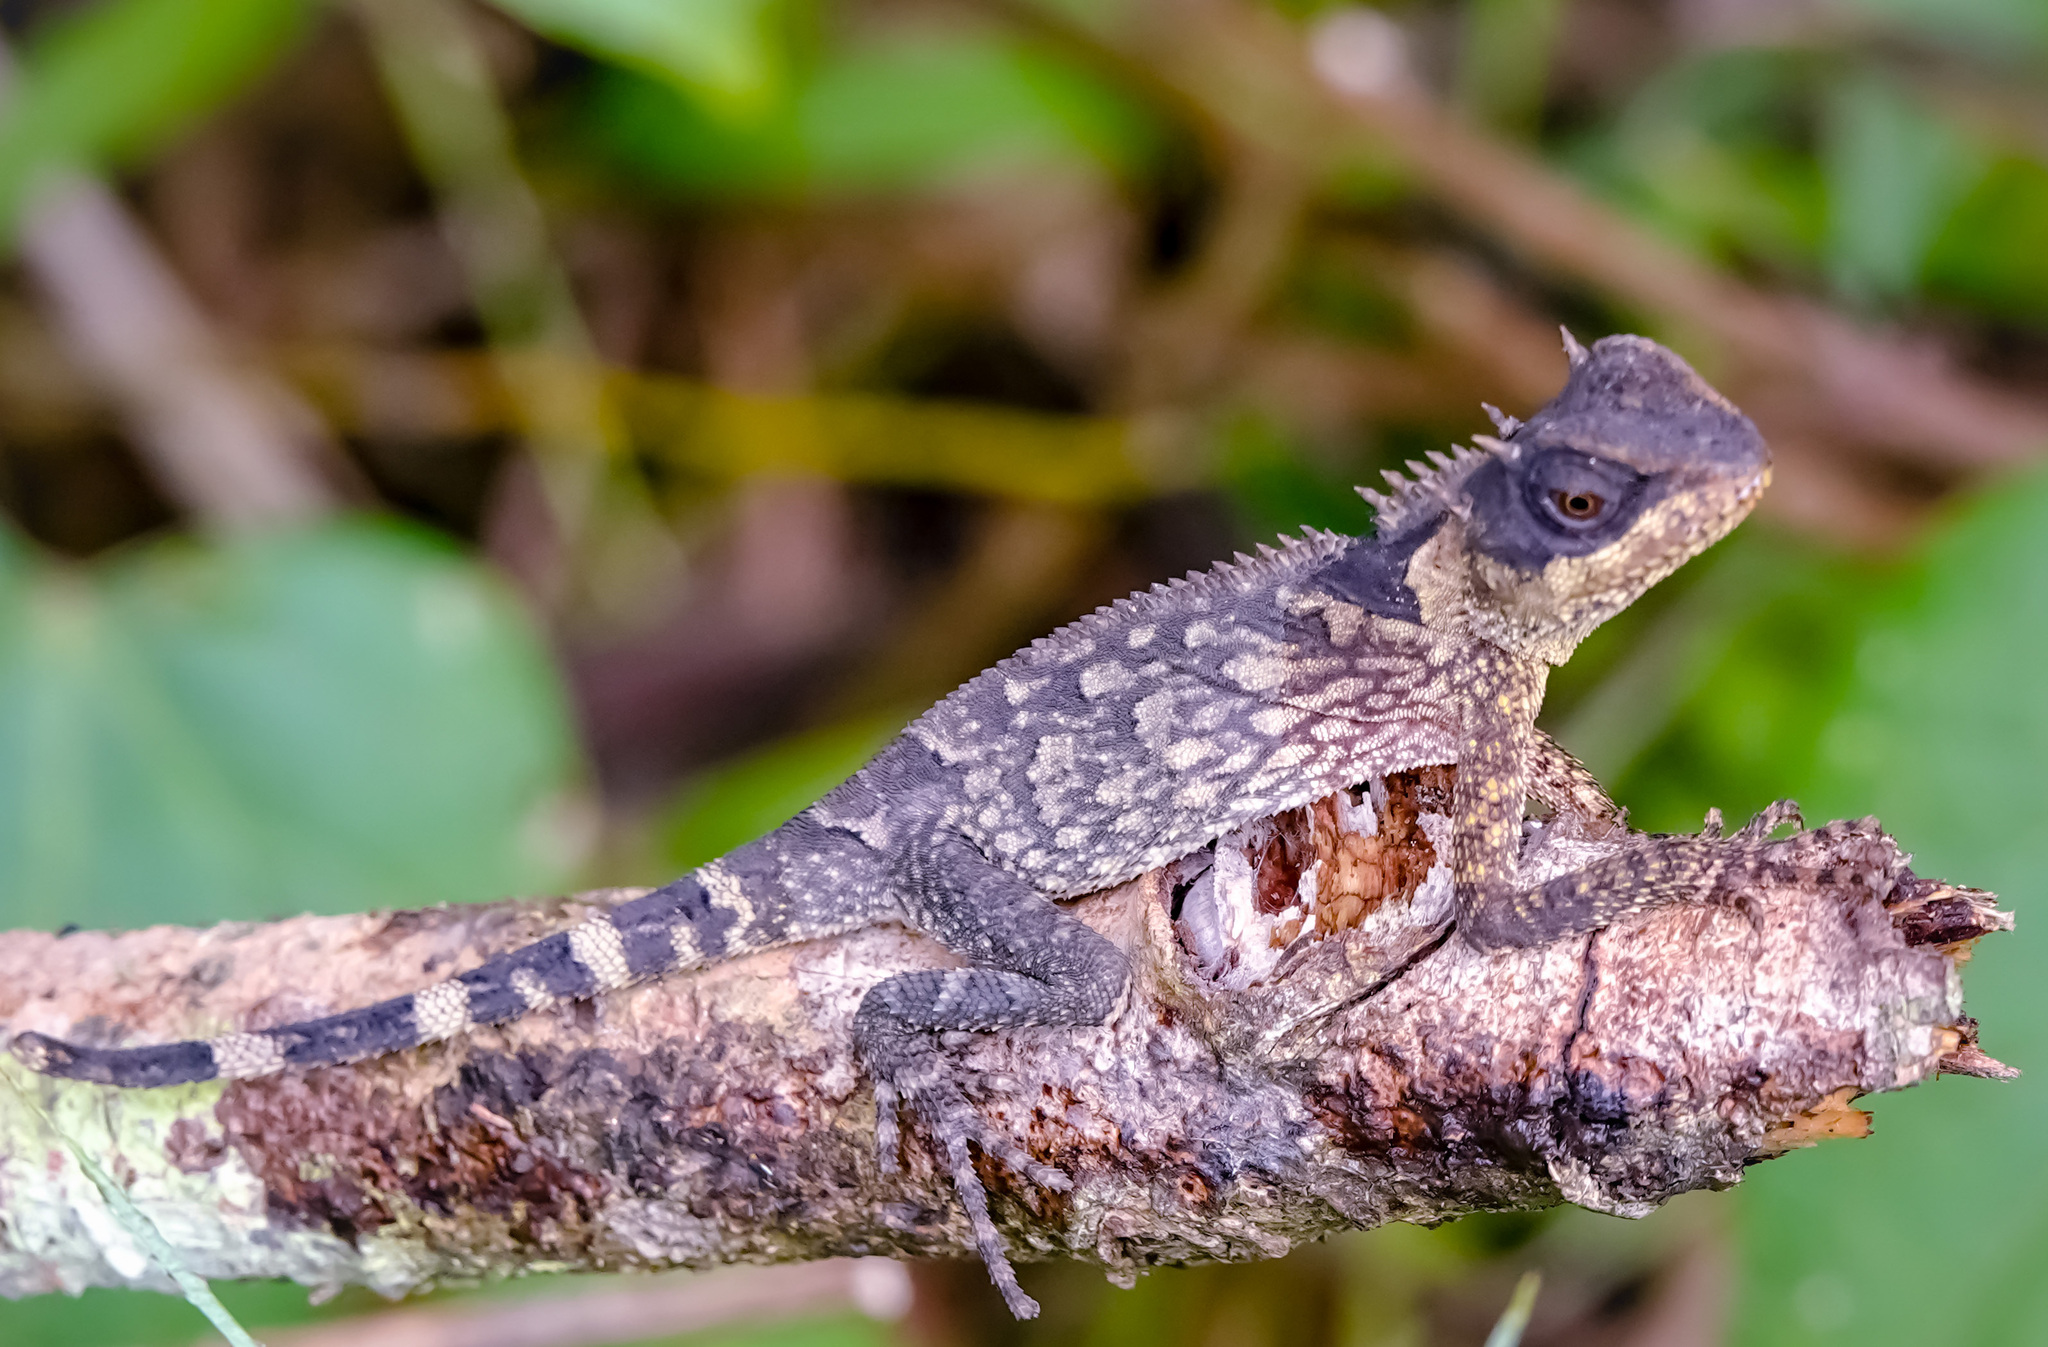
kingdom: Animalia
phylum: Chordata
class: Squamata
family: Agamidae
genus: Acanthosaura
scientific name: Acanthosaura cardamomensis
